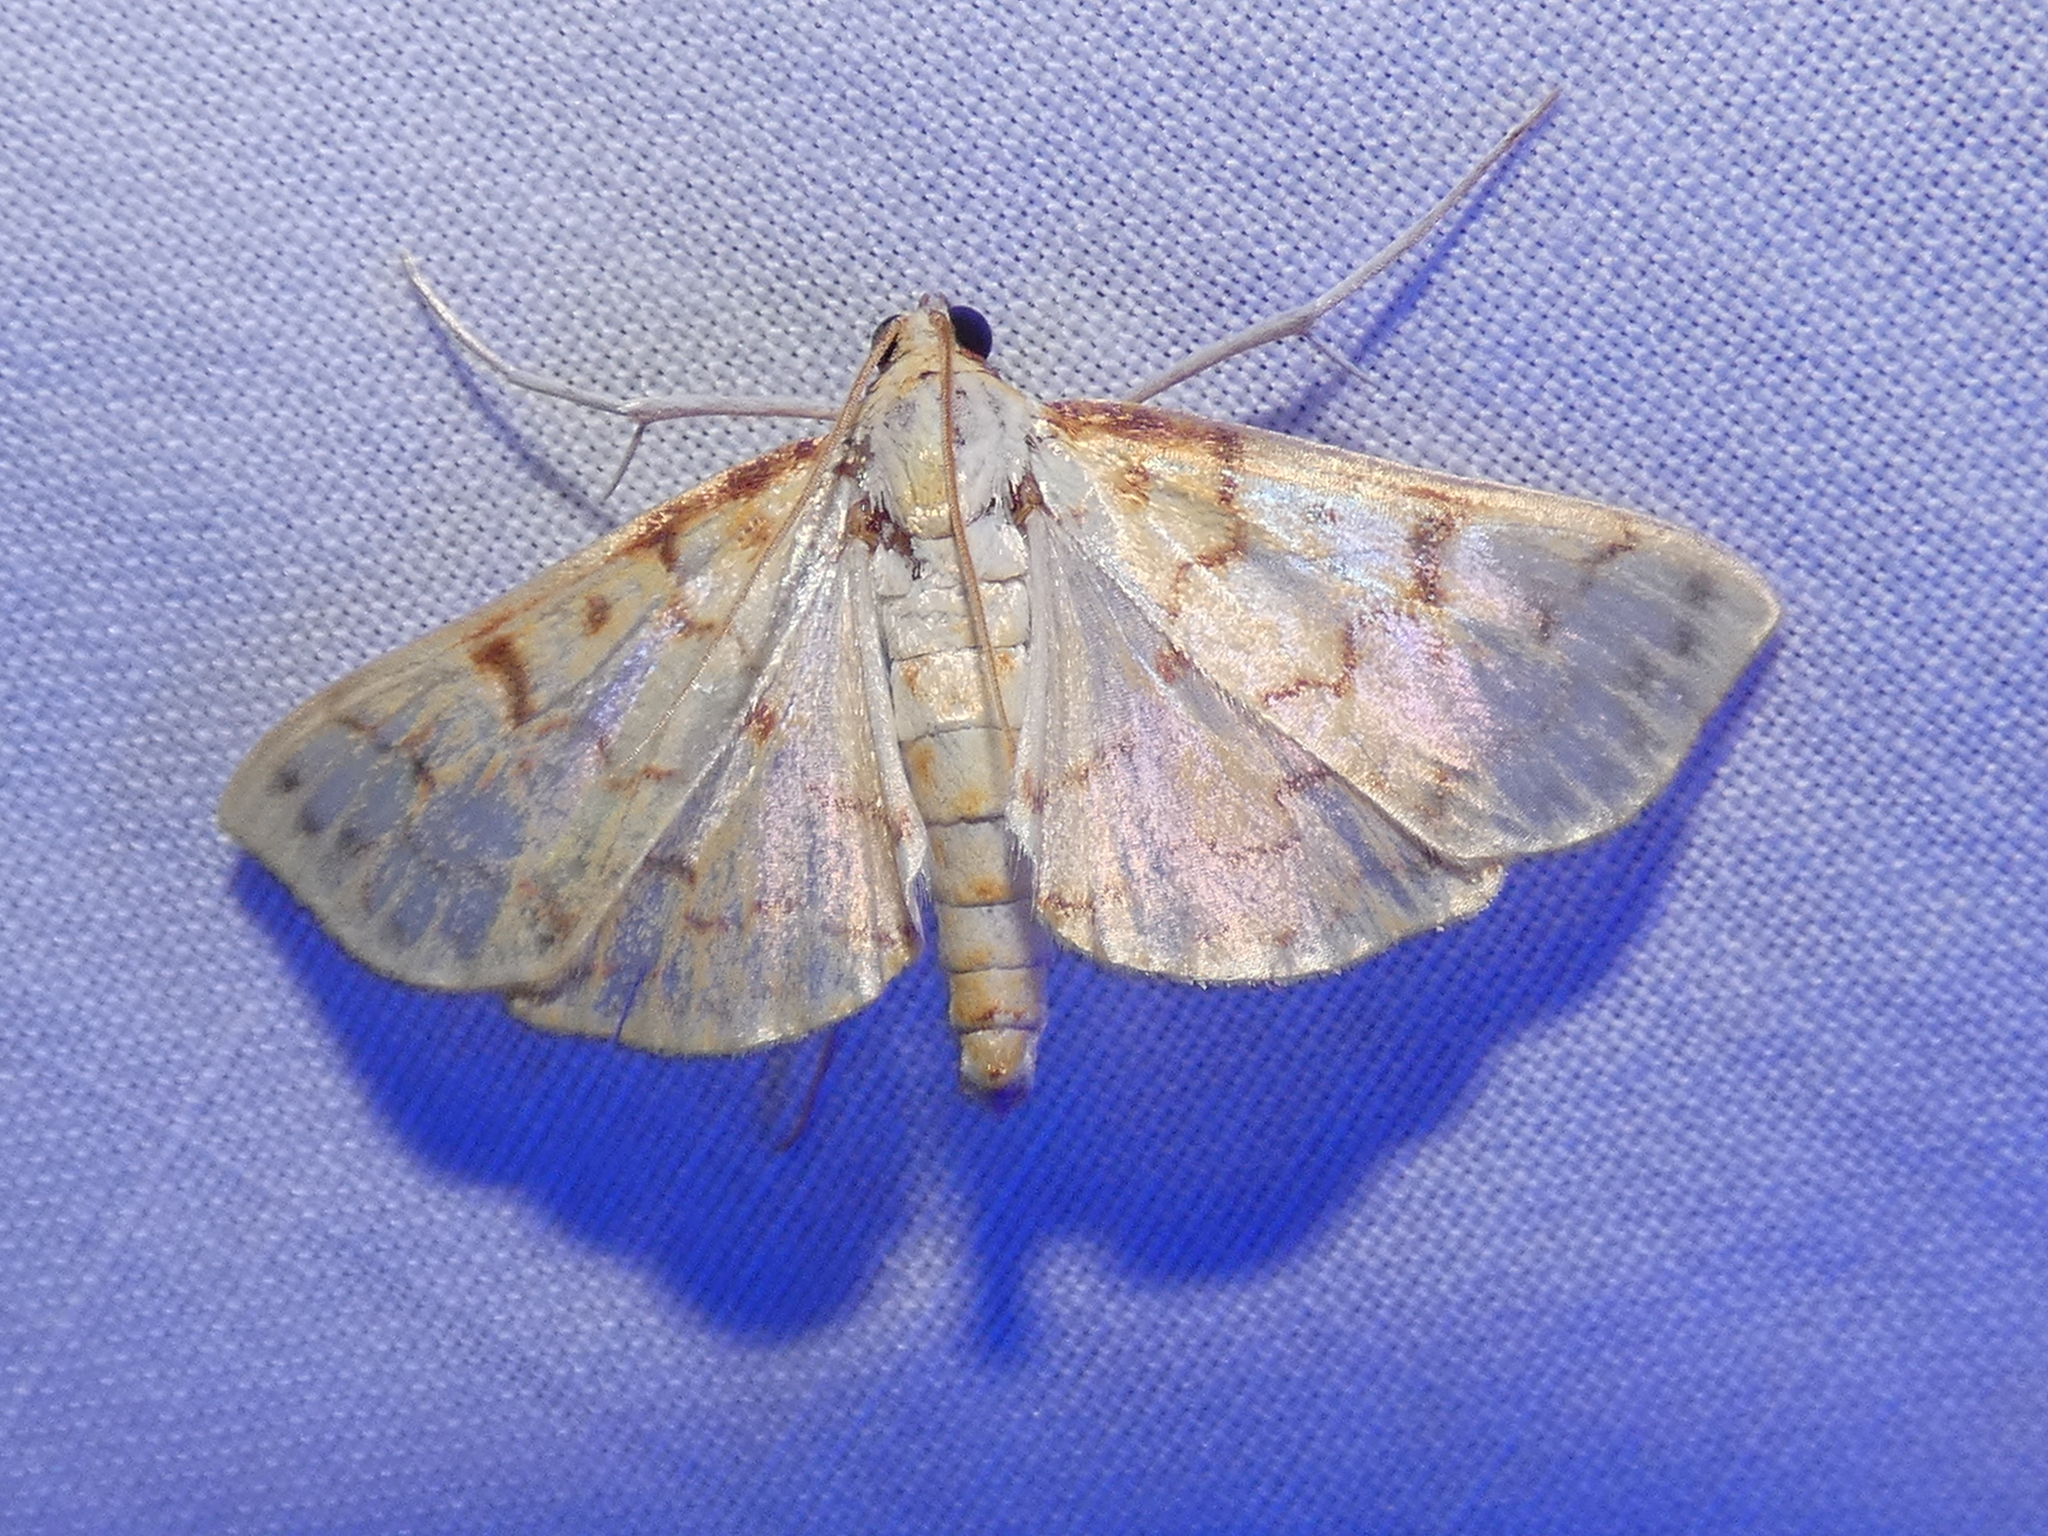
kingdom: Animalia
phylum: Arthropoda
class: Insecta
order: Lepidoptera
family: Crambidae
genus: Polygrammodes
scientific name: Polygrammodes flavidalis
